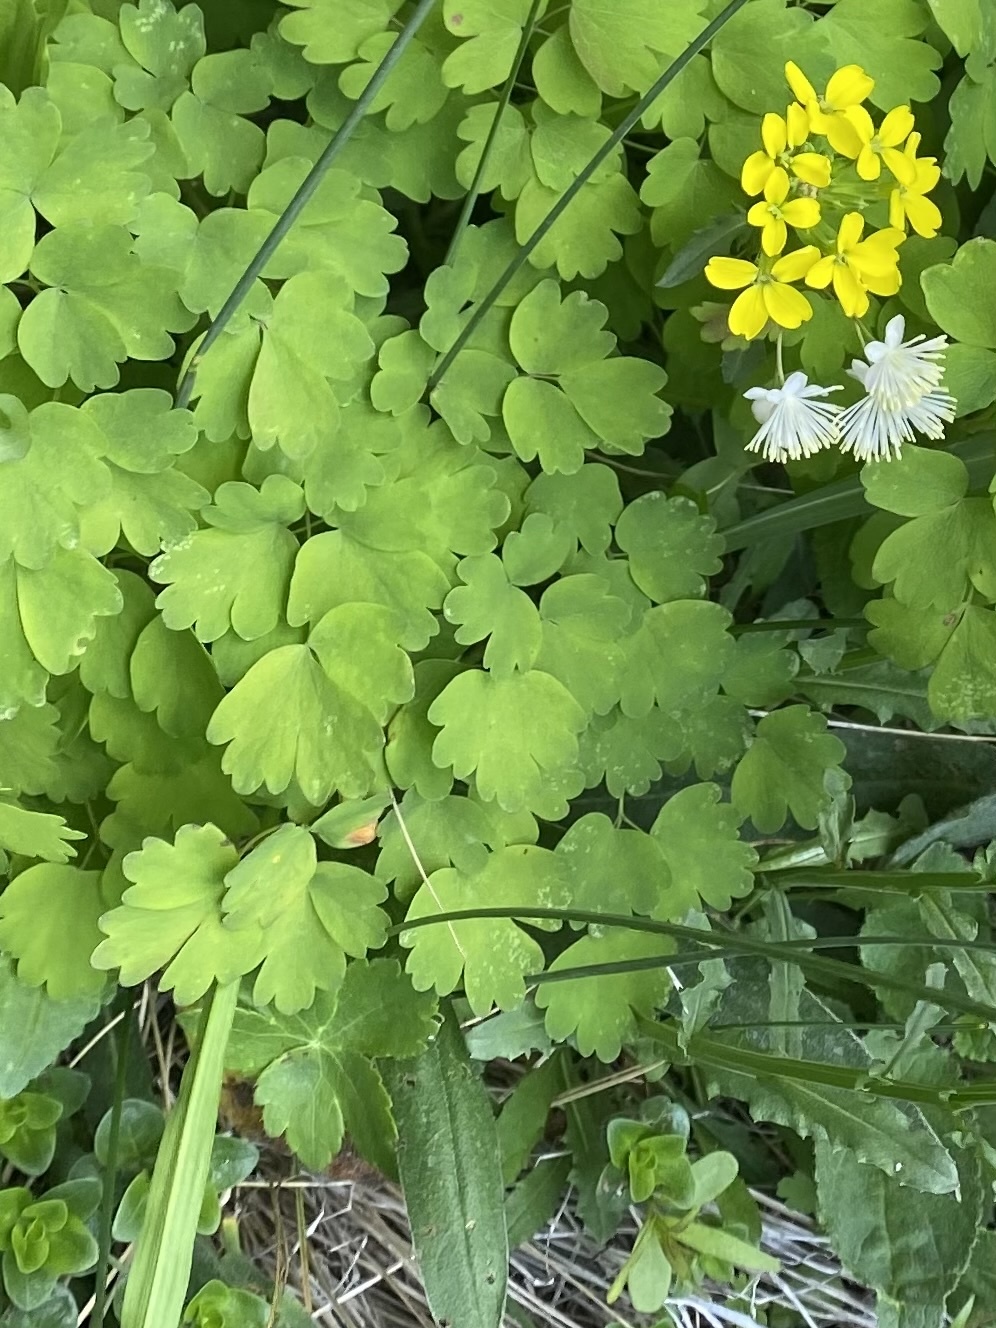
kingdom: Plantae
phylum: Tracheophyta
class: Magnoliopsida
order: Ranunculales
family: Ranunculaceae
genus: Thalictrum
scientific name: Thalictrum aquilegiifolium
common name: French meadow-rue
